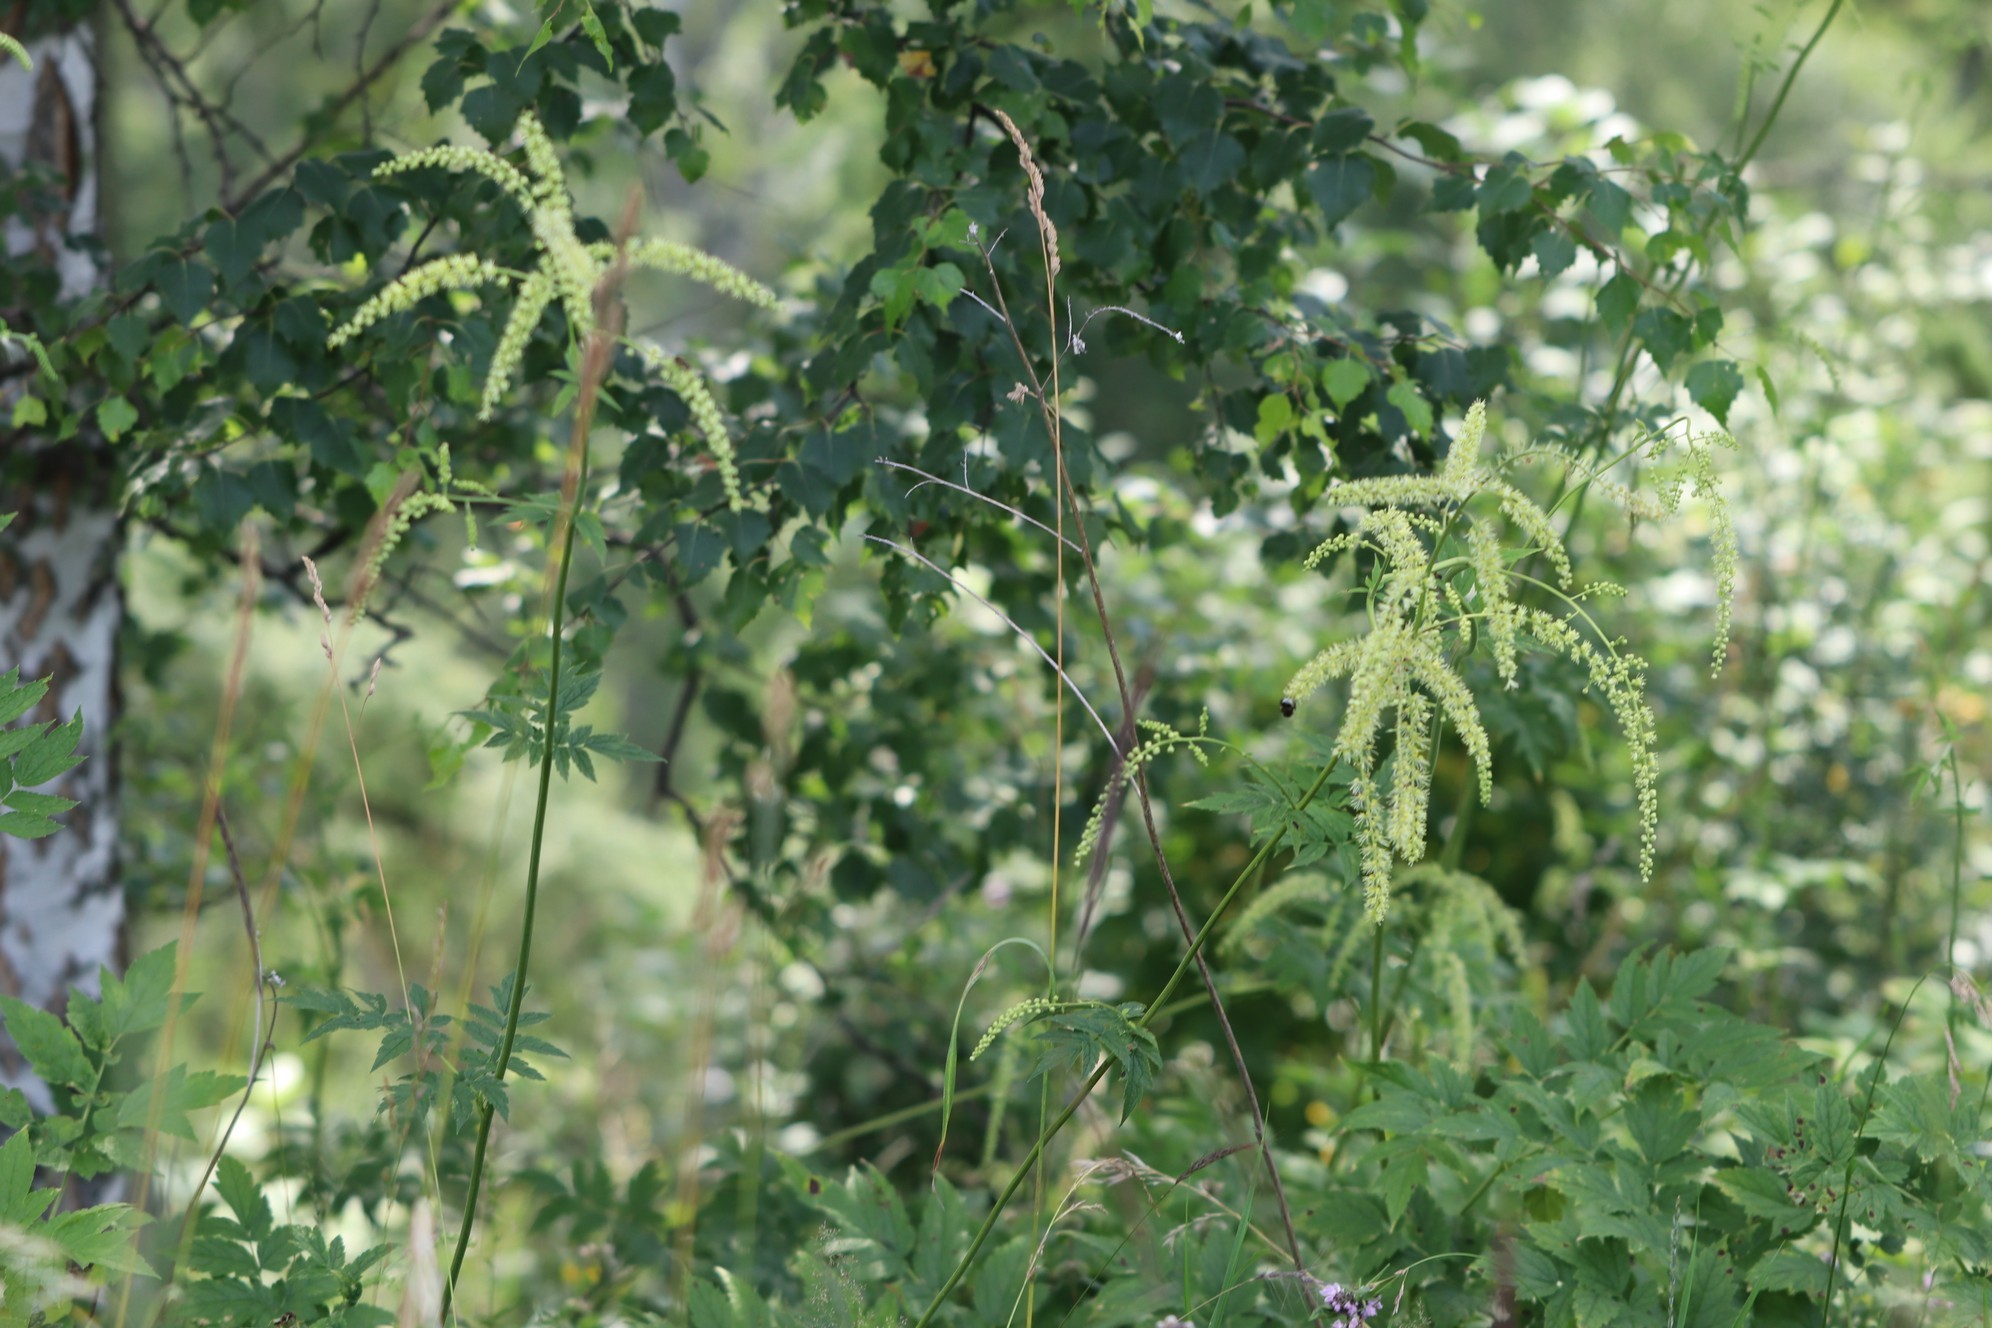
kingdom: Plantae
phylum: Tracheophyta
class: Magnoliopsida
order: Ranunculales
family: Ranunculaceae
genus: Actaea
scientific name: Actaea cimicifuga
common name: Chinese cimicifuga
